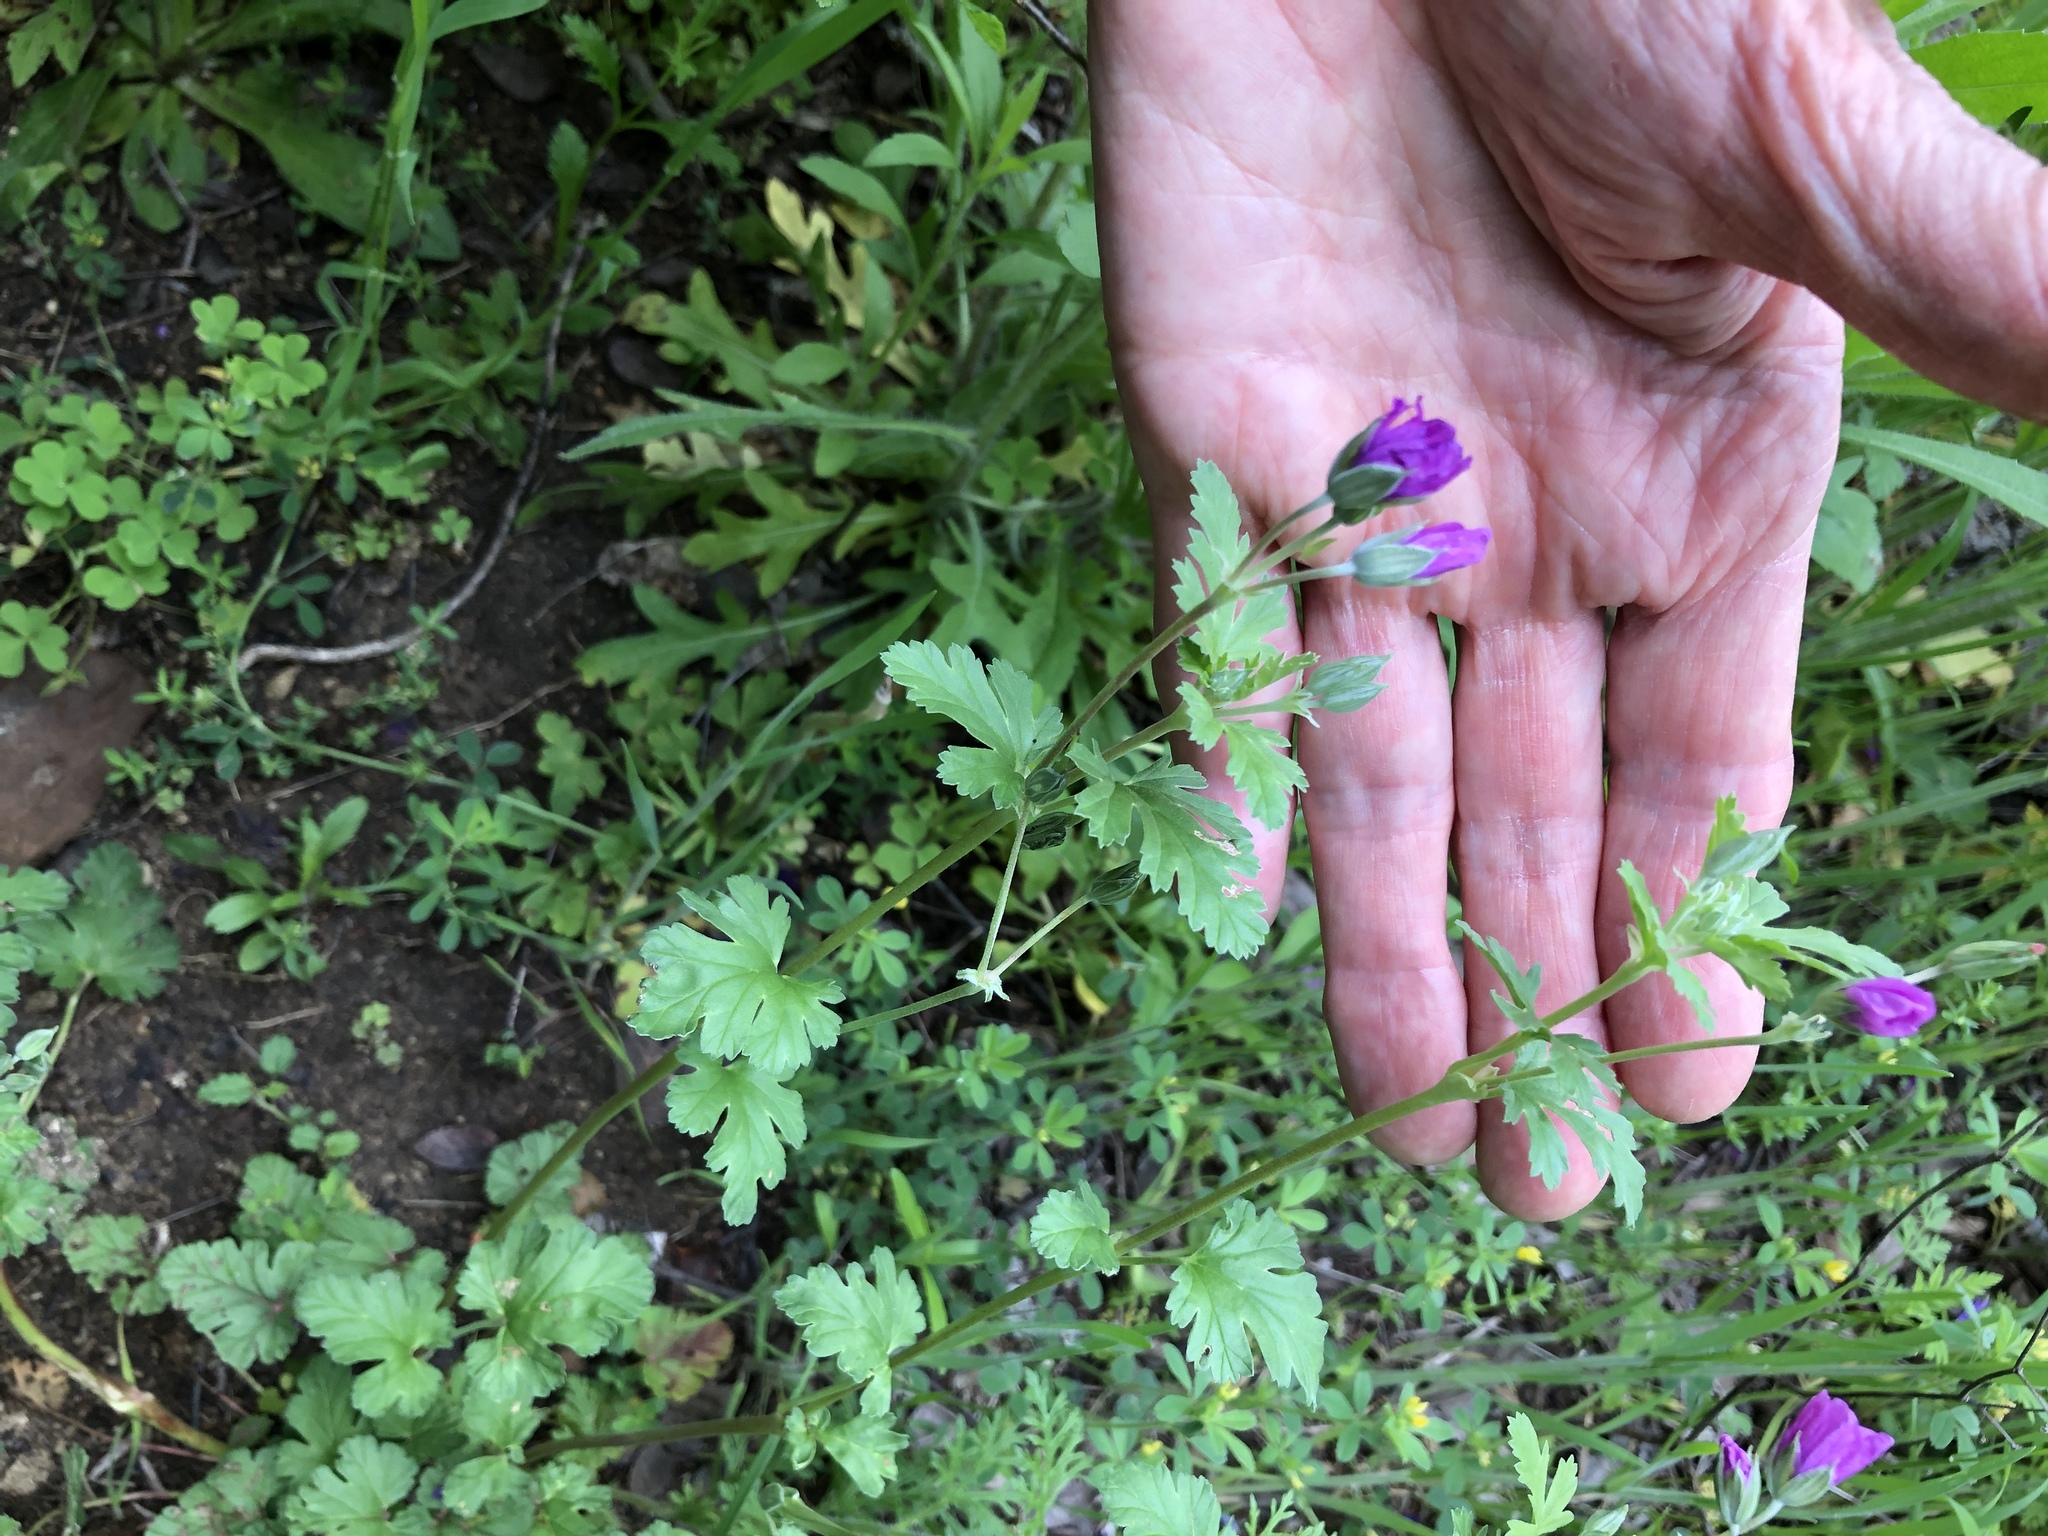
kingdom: Plantae
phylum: Tracheophyta
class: Magnoliopsida
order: Geraniales
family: Geraniaceae
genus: Erodium
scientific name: Erodium texanum
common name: Texas stork's-bill
